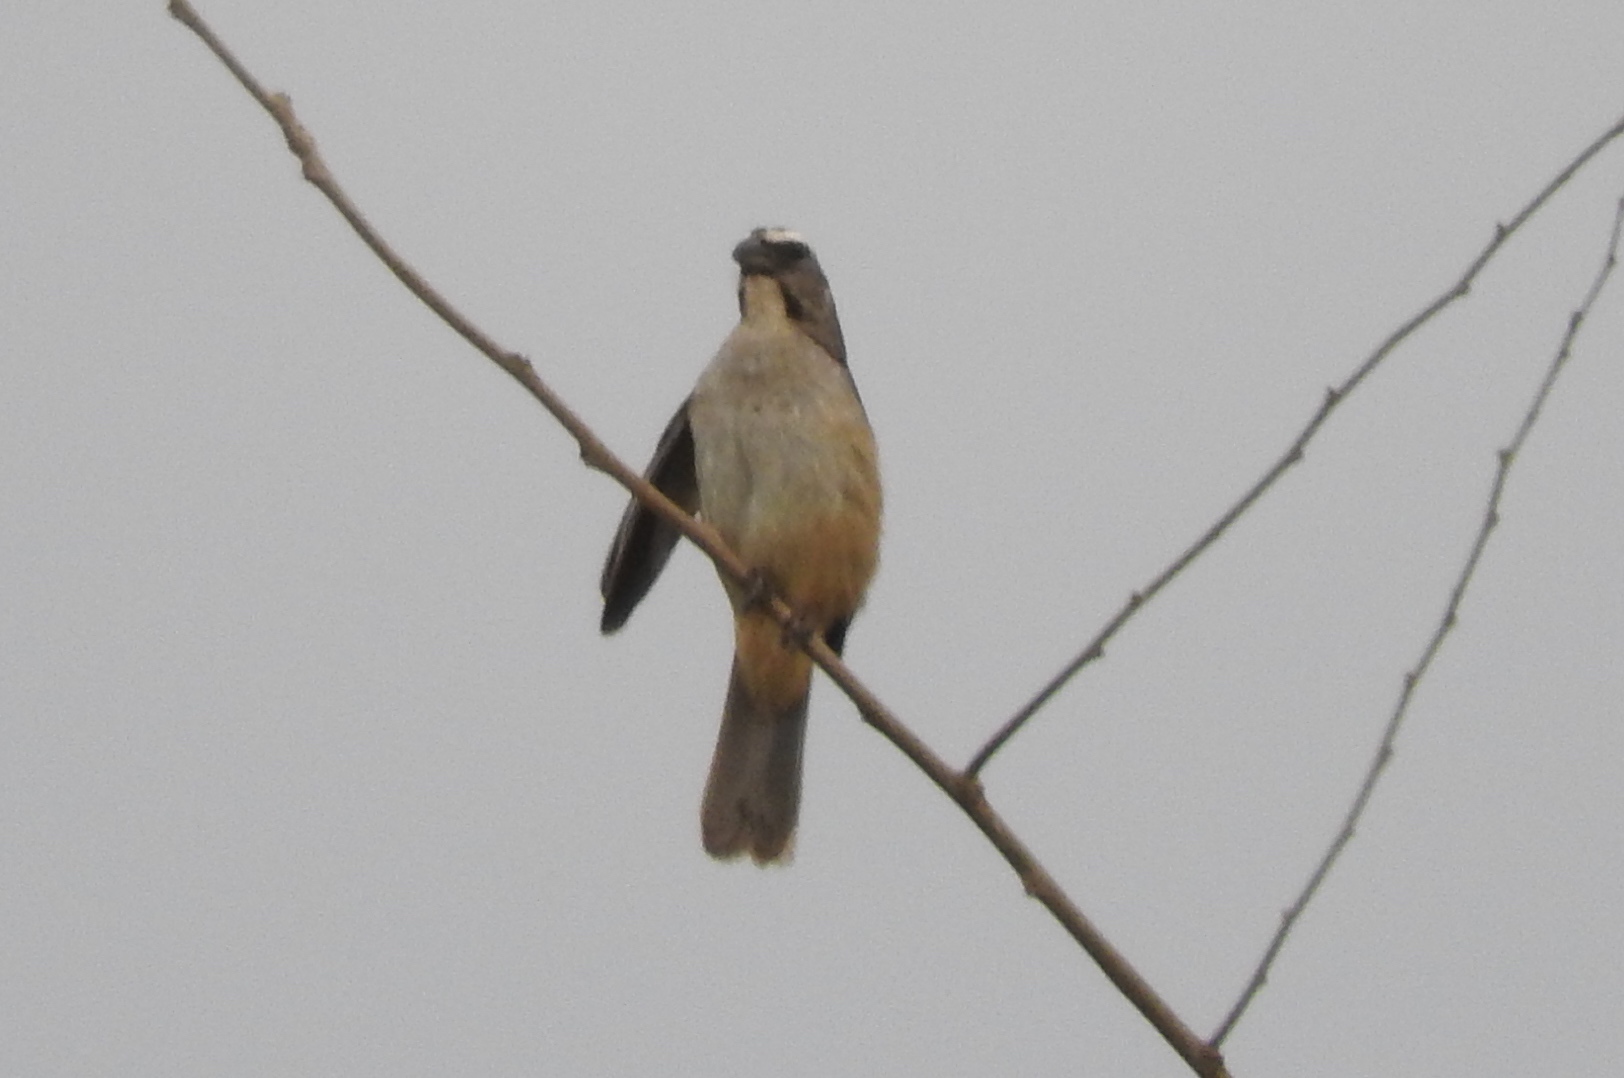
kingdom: Animalia
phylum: Chordata
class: Aves
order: Passeriformes
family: Thraupidae
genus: Saltator
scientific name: Saltator grandis
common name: Cinnamon-bellied saltator
